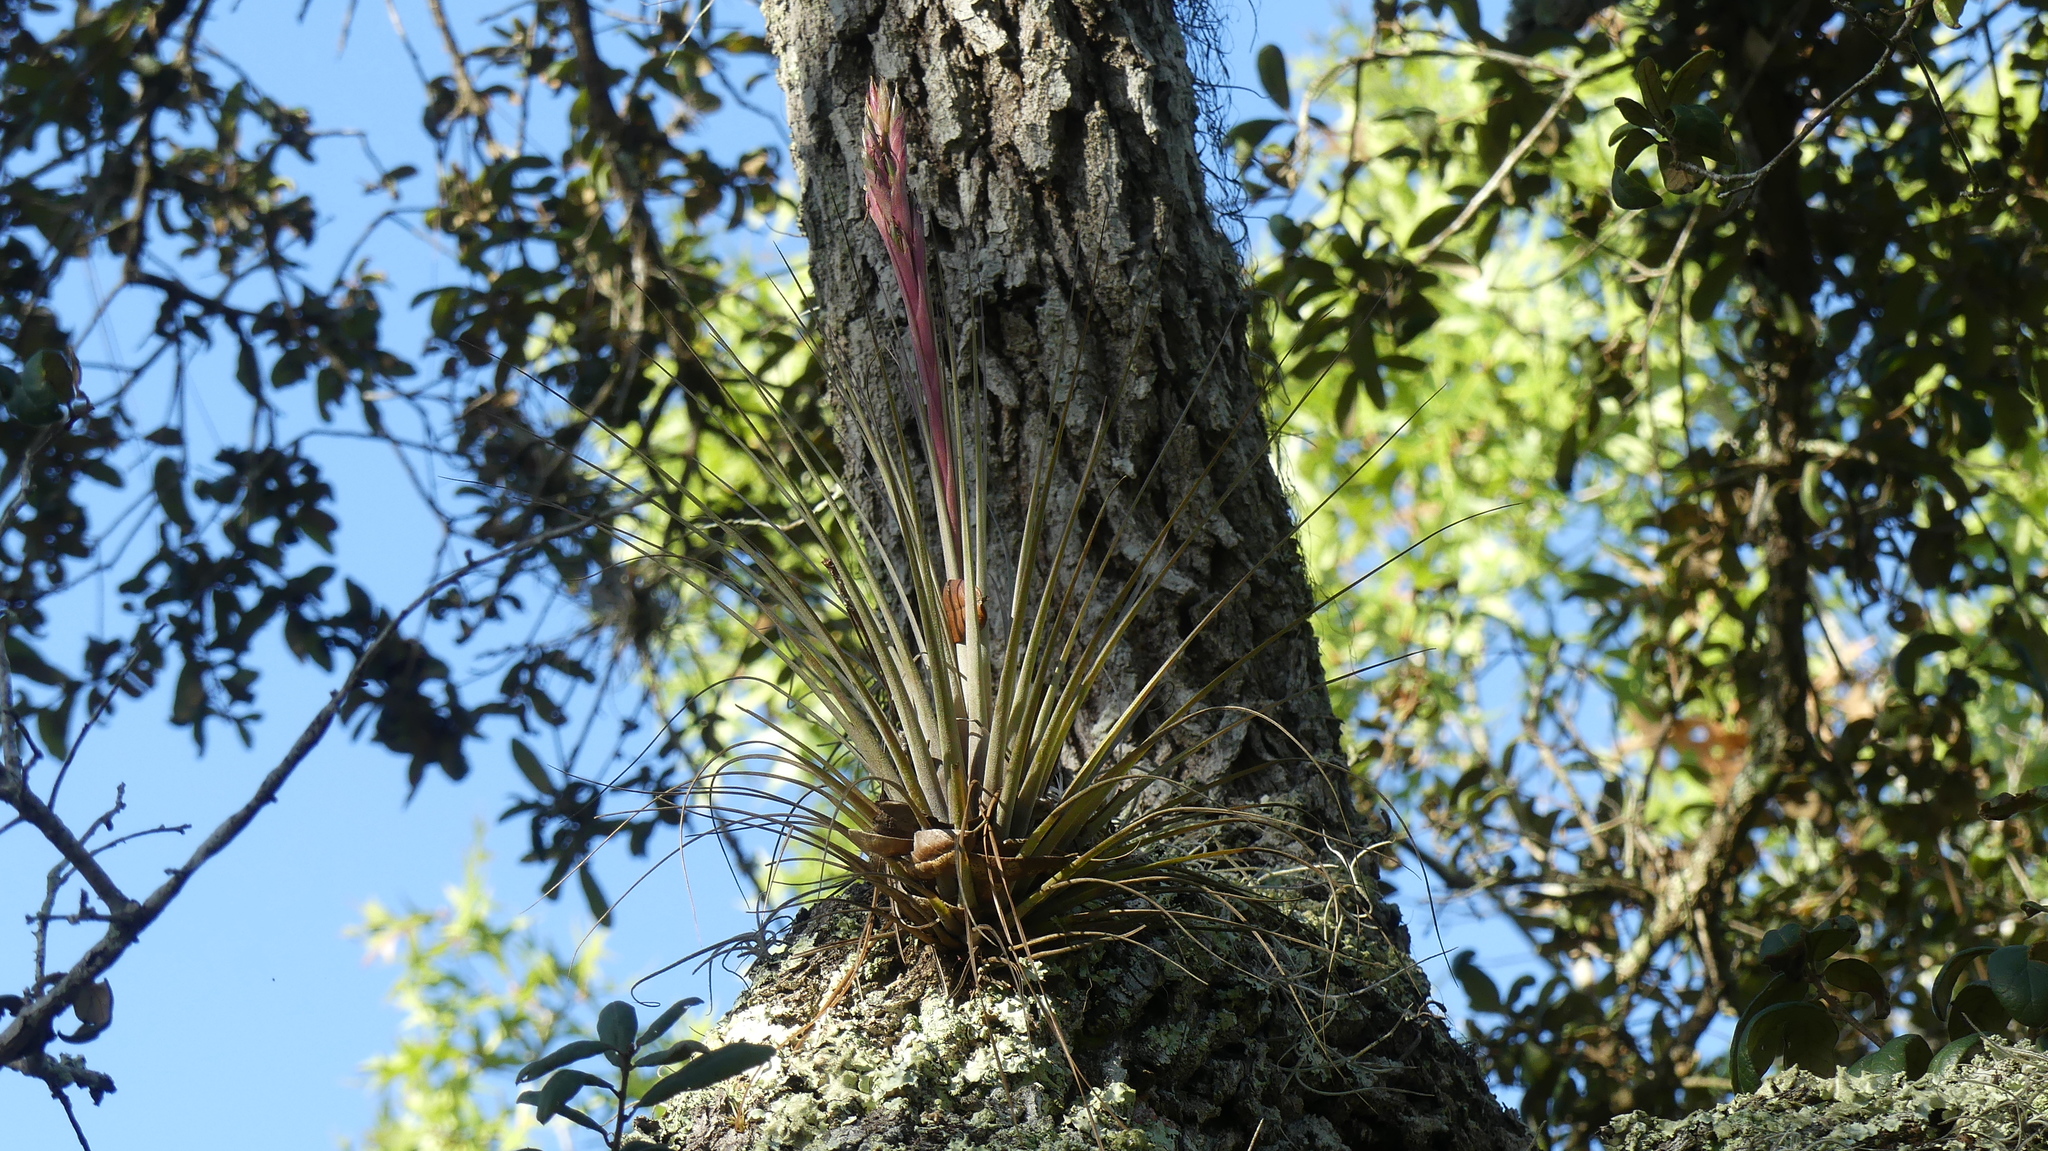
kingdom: Plantae
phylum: Tracheophyta
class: Liliopsida
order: Poales
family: Bromeliaceae
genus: Tillandsia
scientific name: Tillandsia floridana
